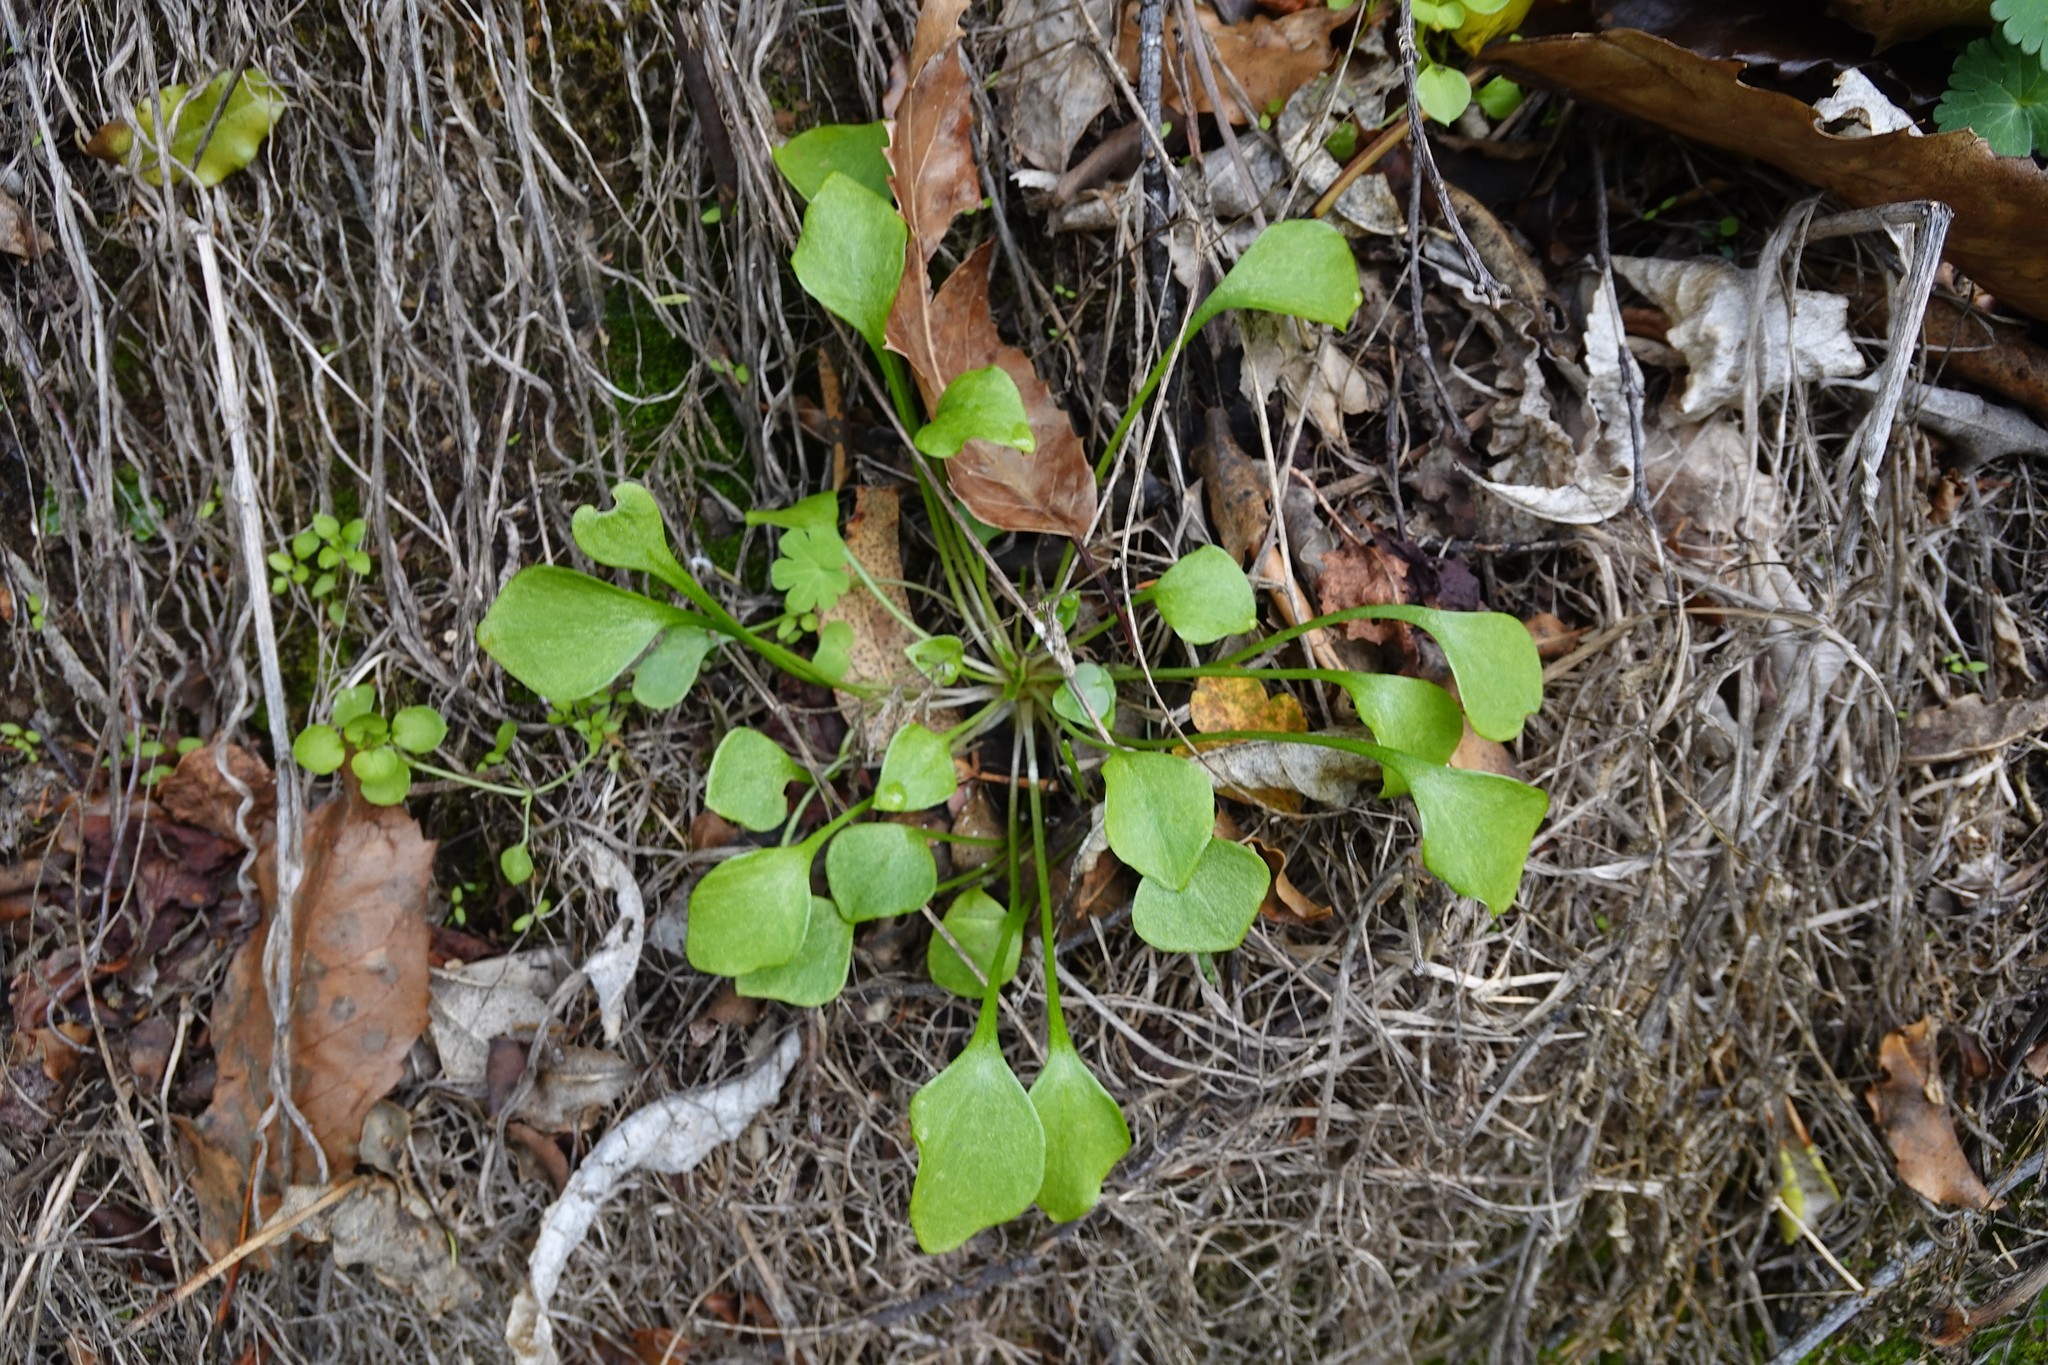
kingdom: Plantae
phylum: Tracheophyta
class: Magnoliopsida
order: Caryophyllales
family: Montiaceae
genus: Claytonia
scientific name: Claytonia perfoliata
